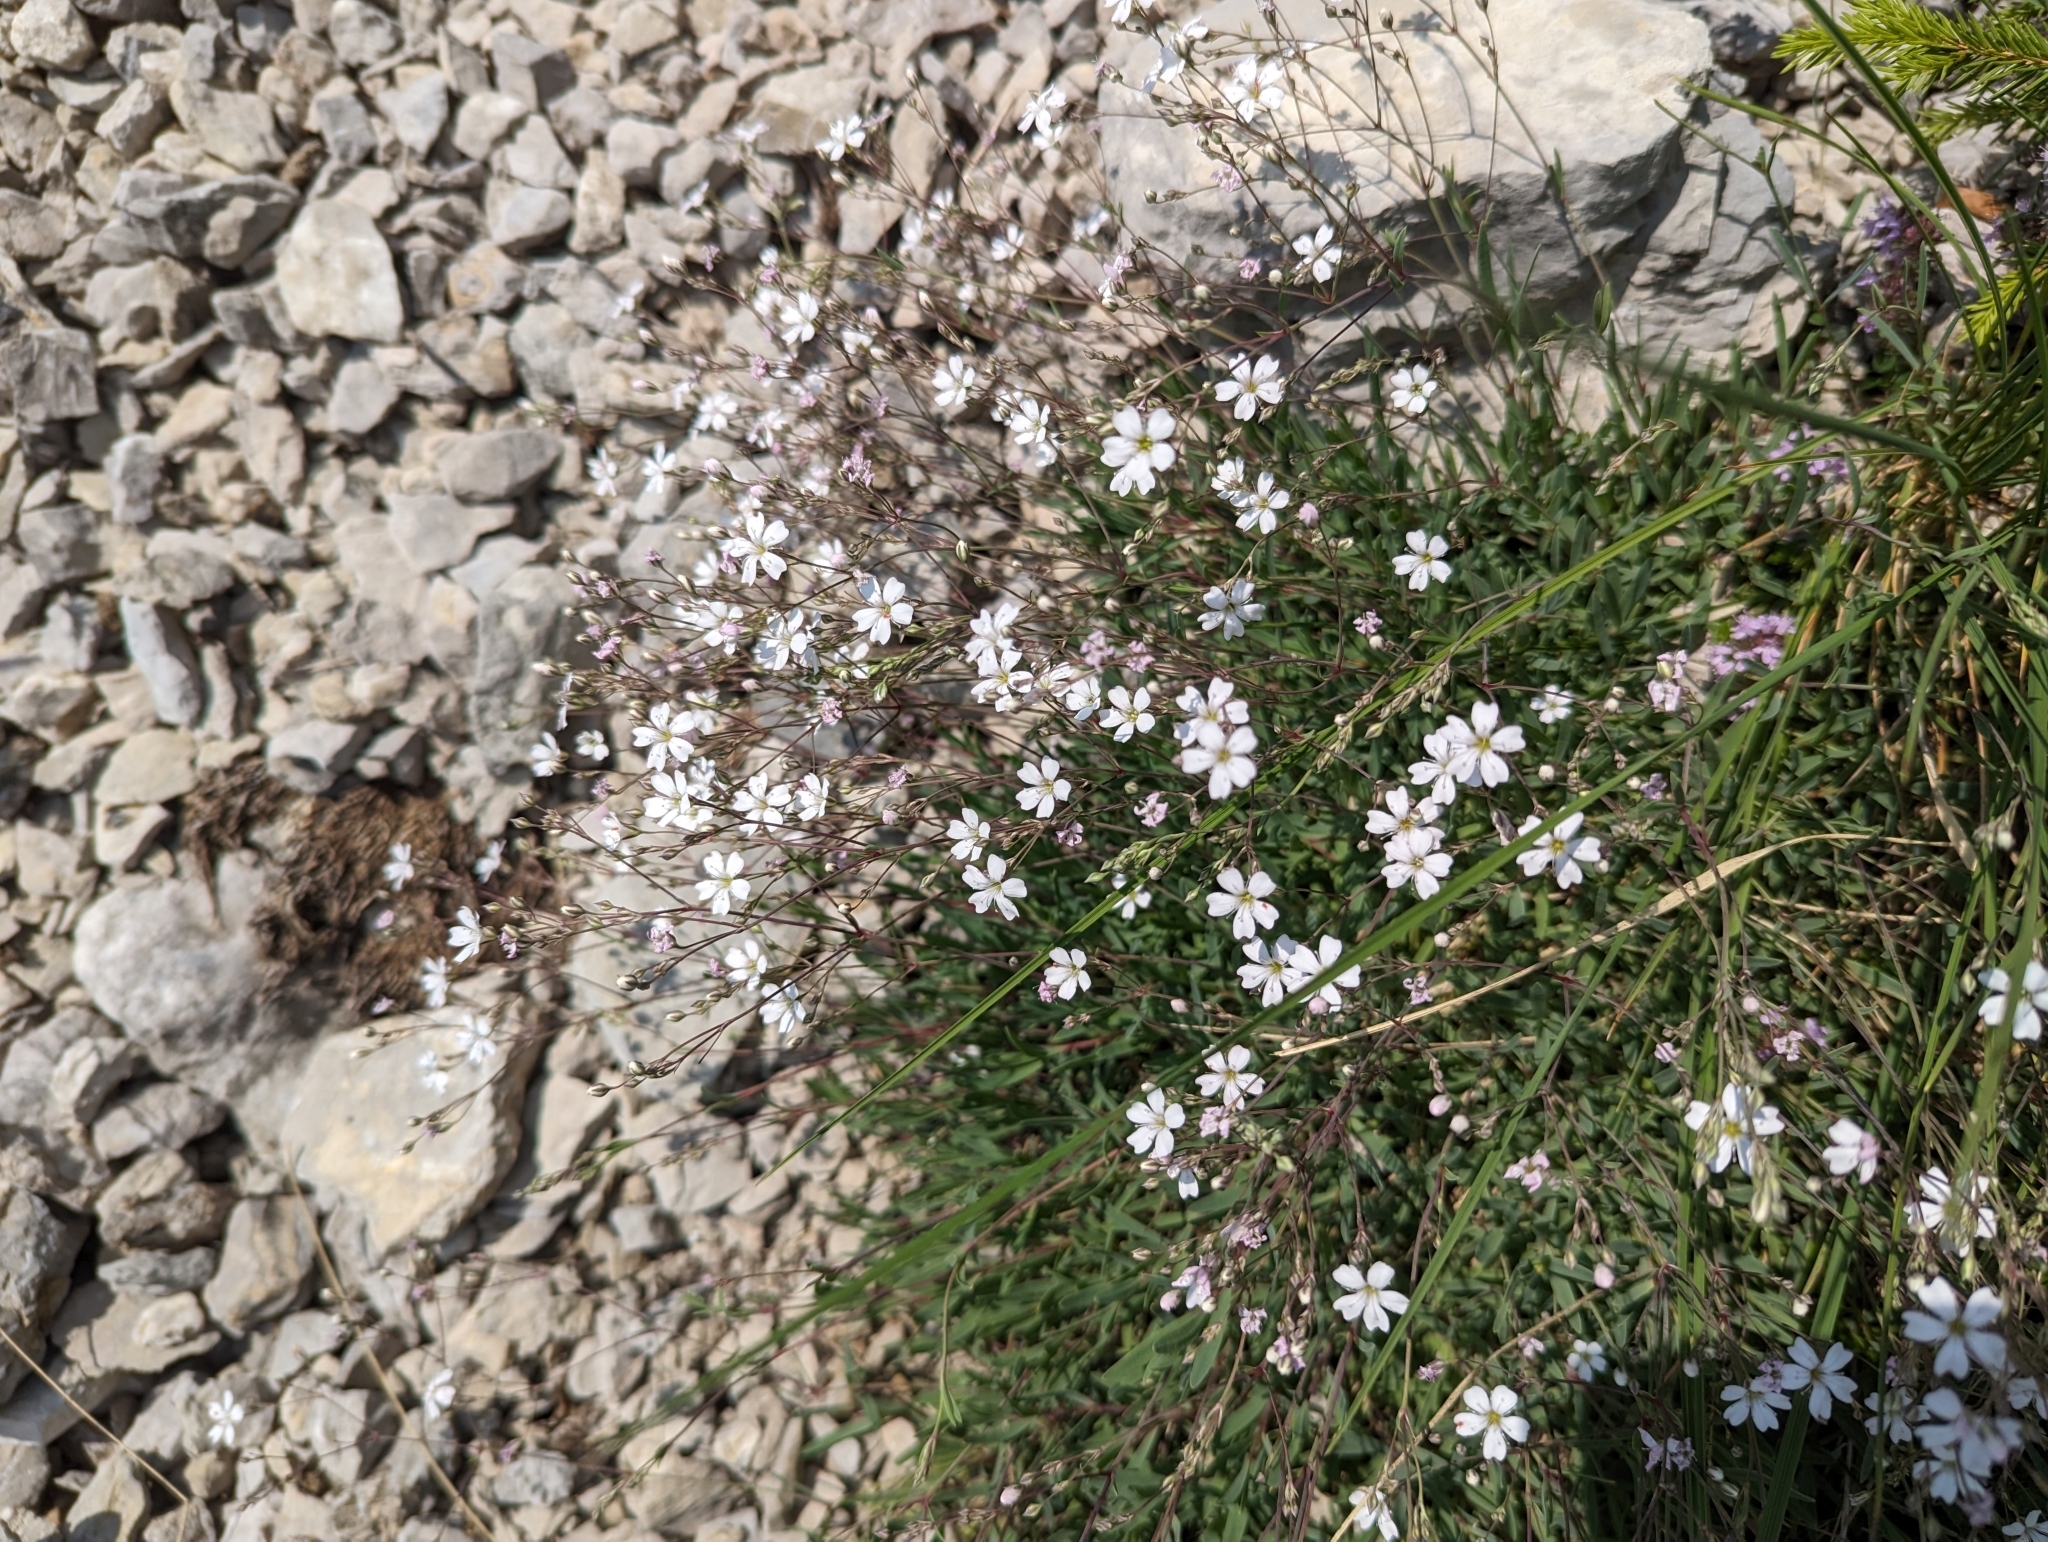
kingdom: Plantae
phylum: Tracheophyta
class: Magnoliopsida
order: Caryophyllales
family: Caryophyllaceae
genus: Gypsophila
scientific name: Gypsophila repens
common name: Creeping baby's-breath
